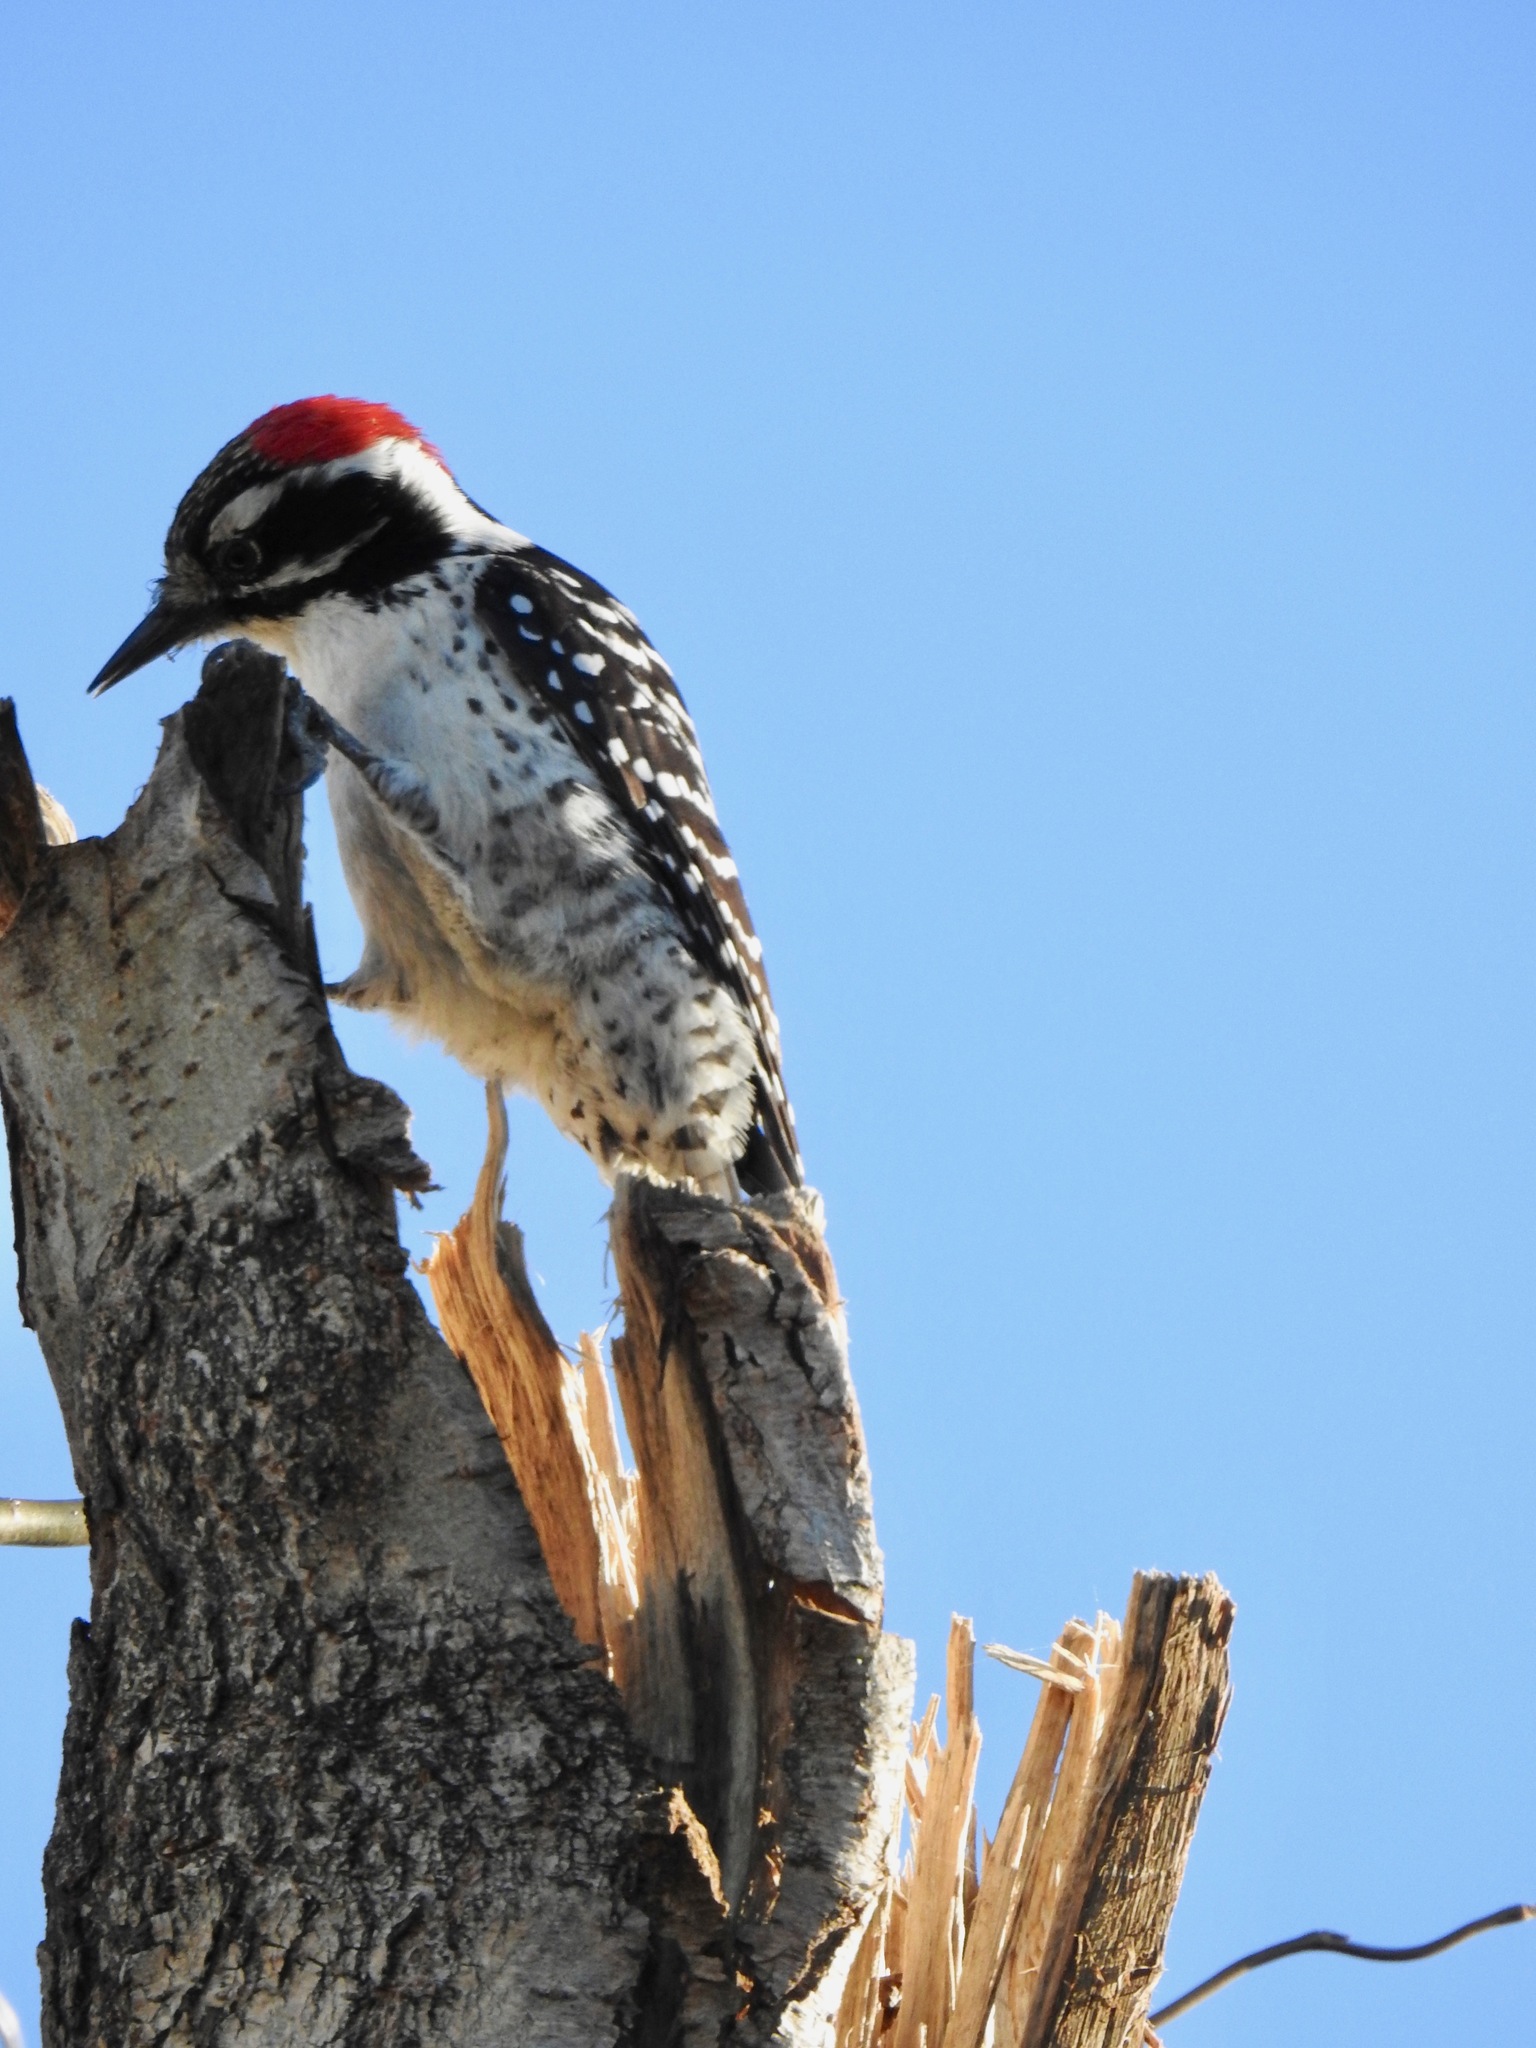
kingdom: Animalia
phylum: Chordata
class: Aves
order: Piciformes
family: Picidae
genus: Dryobates
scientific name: Dryobates nuttallii
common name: Nuttall's woodpecker
